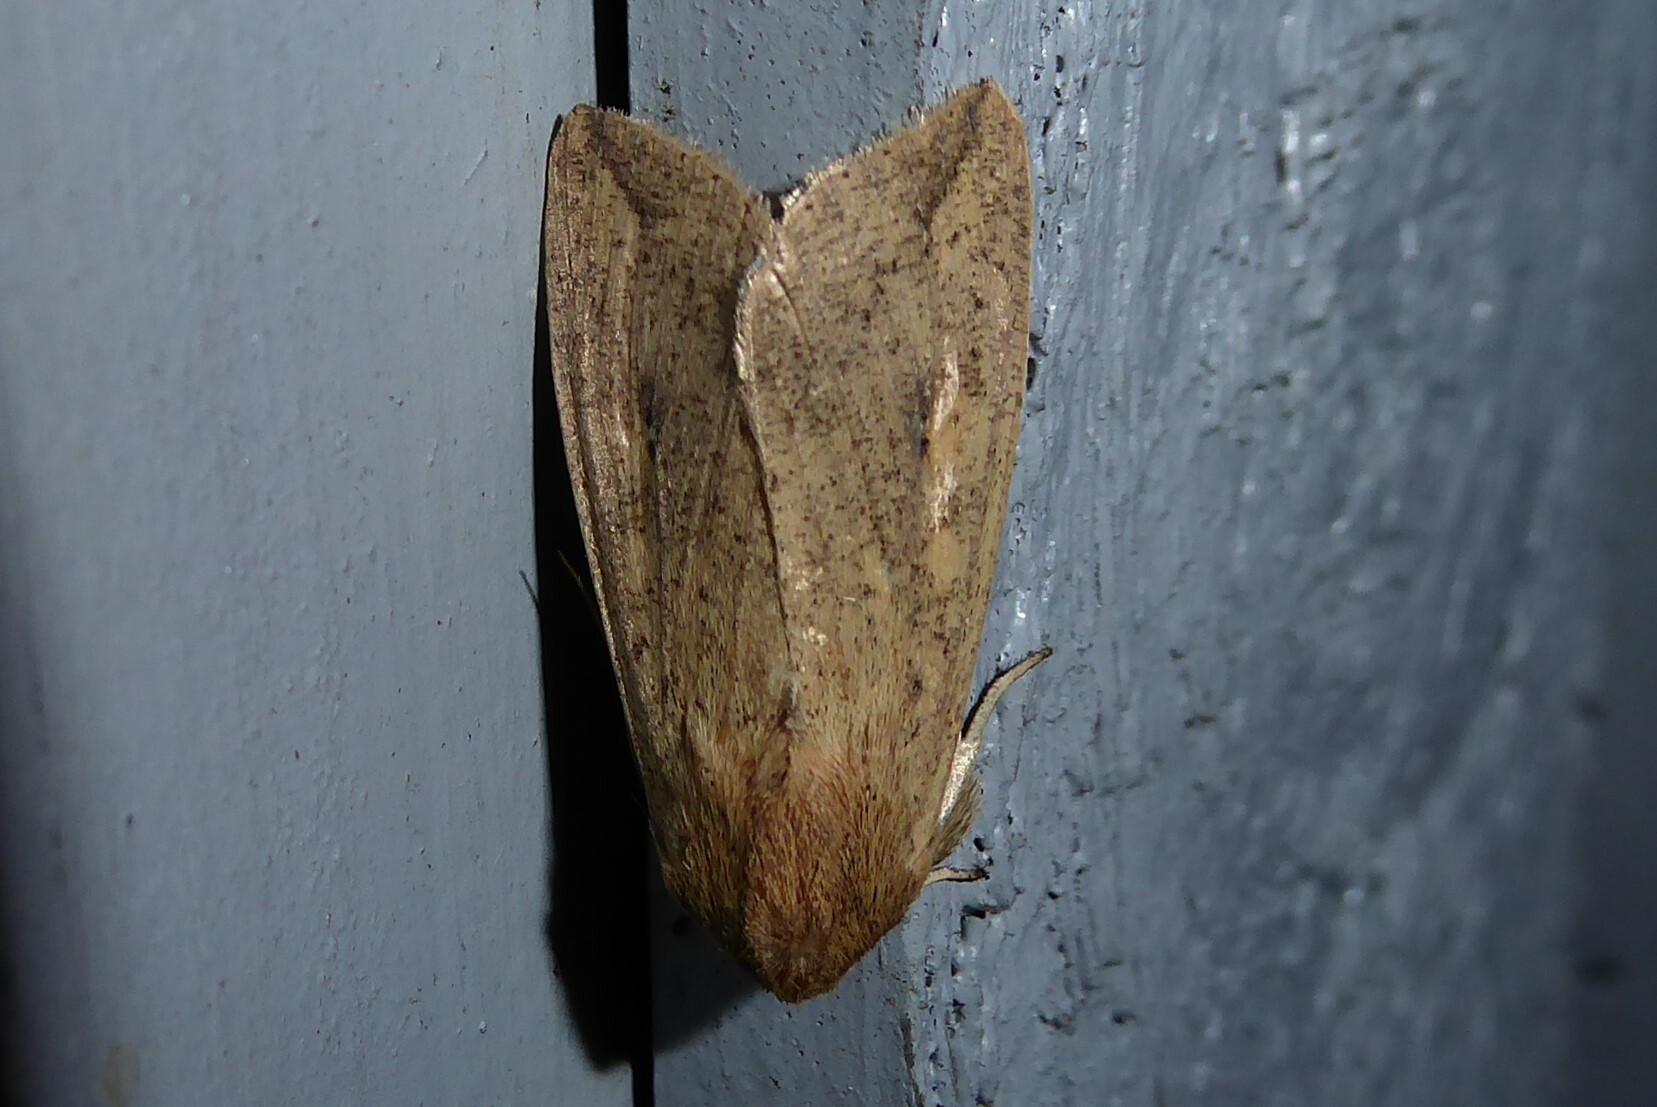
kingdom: Animalia
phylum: Arthropoda
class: Insecta
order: Lepidoptera
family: Noctuidae
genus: Mythimna
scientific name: Mythimna separata
